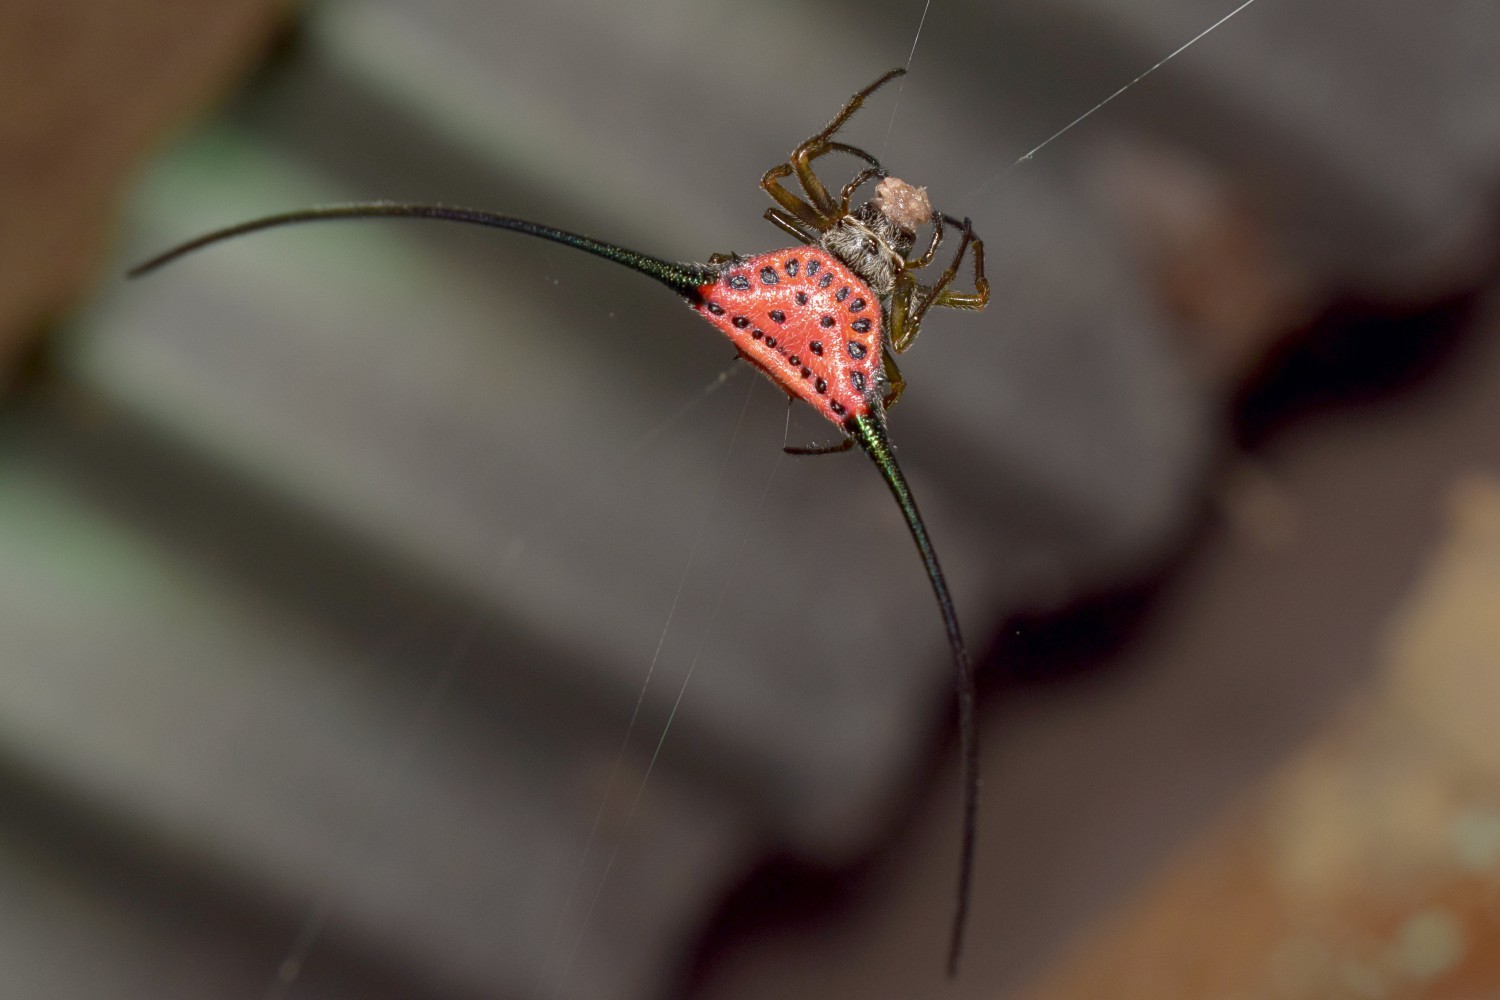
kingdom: Animalia
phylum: Arthropoda
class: Arachnida
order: Araneae
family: Araneidae
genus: Macracantha
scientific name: Macracantha arcuata
